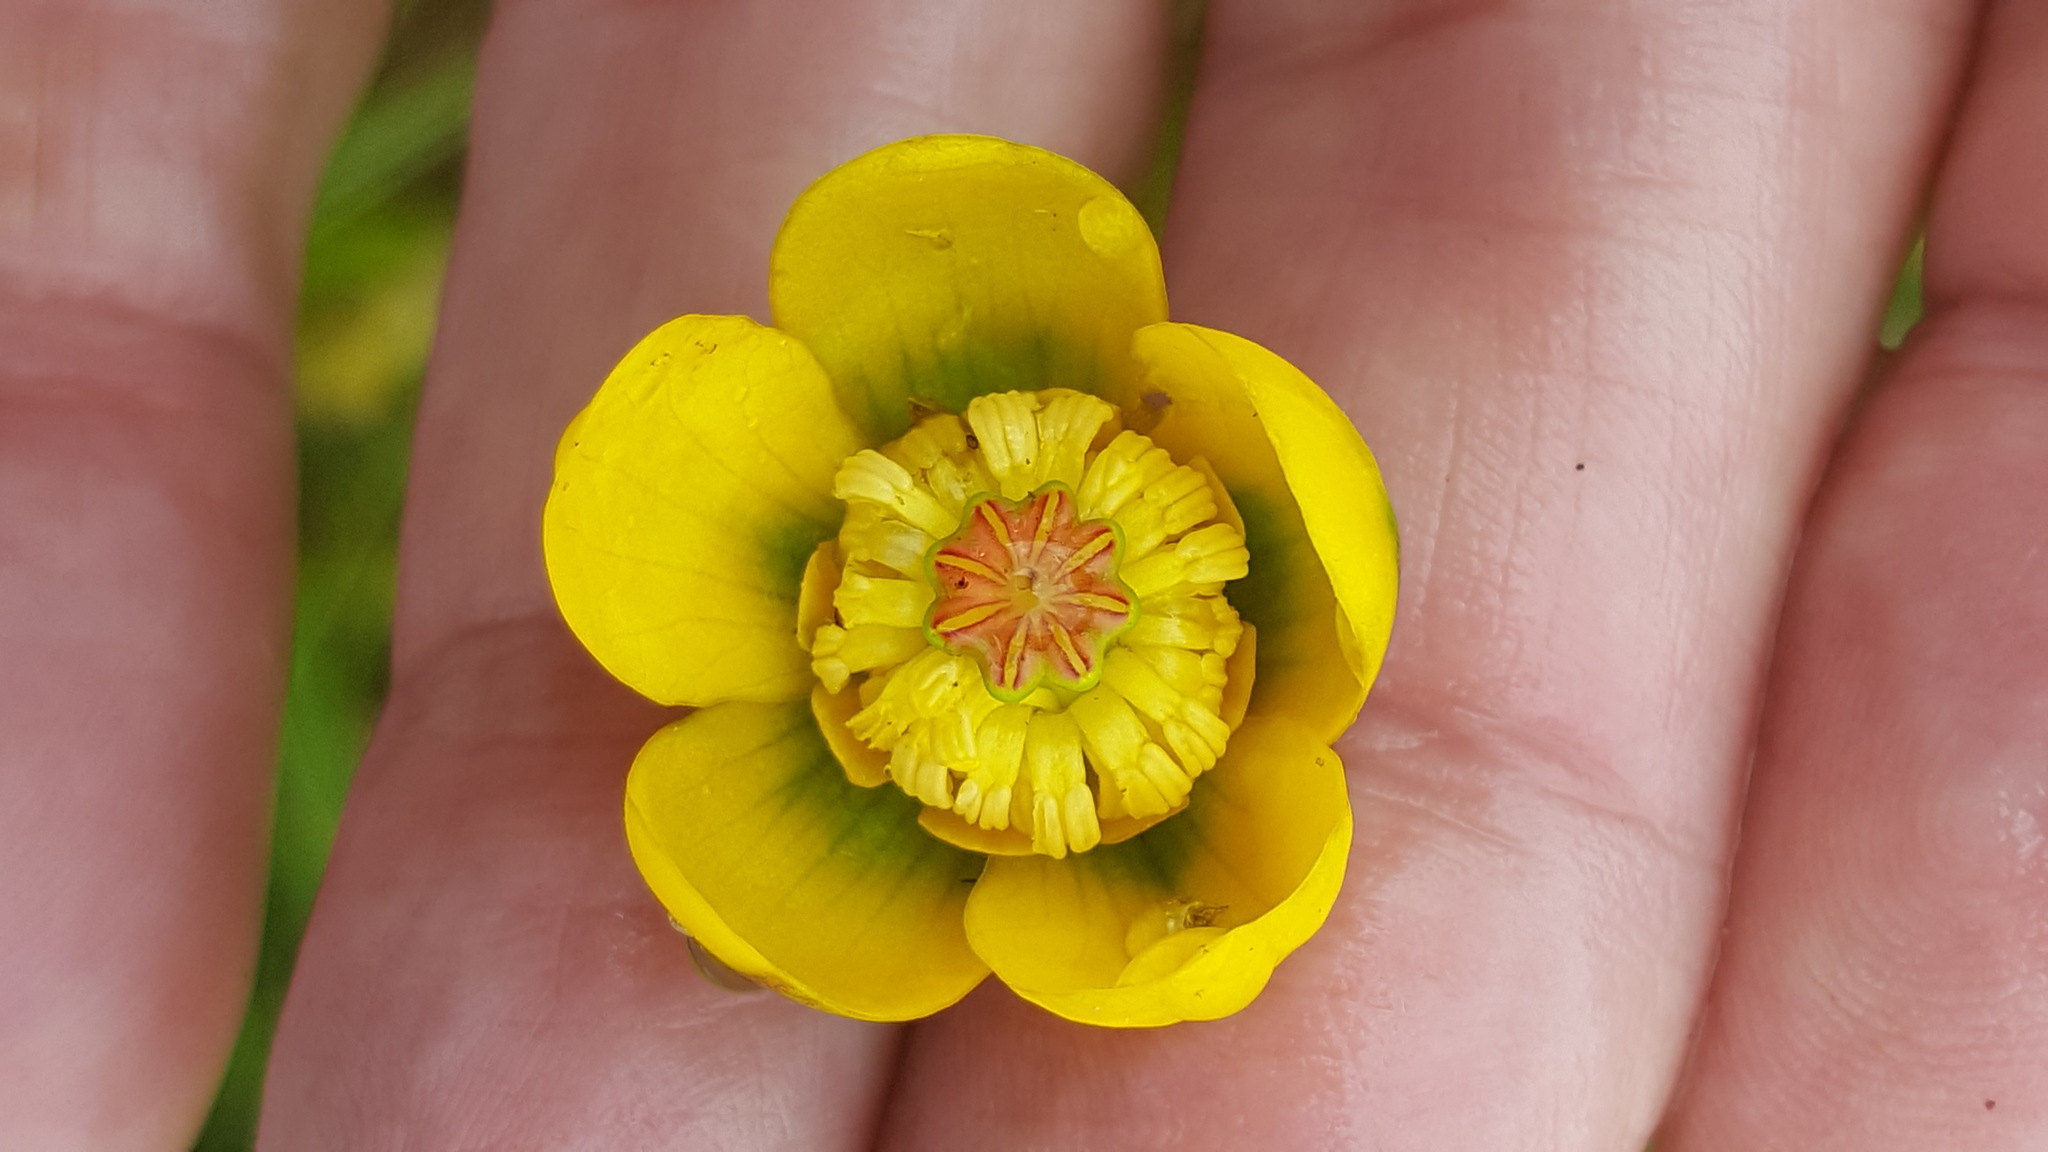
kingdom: Plantae
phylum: Tracheophyta
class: Magnoliopsida
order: Nymphaeales
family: Nymphaeaceae
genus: Nuphar
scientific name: Nuphar microphylla
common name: Small pond-lily
